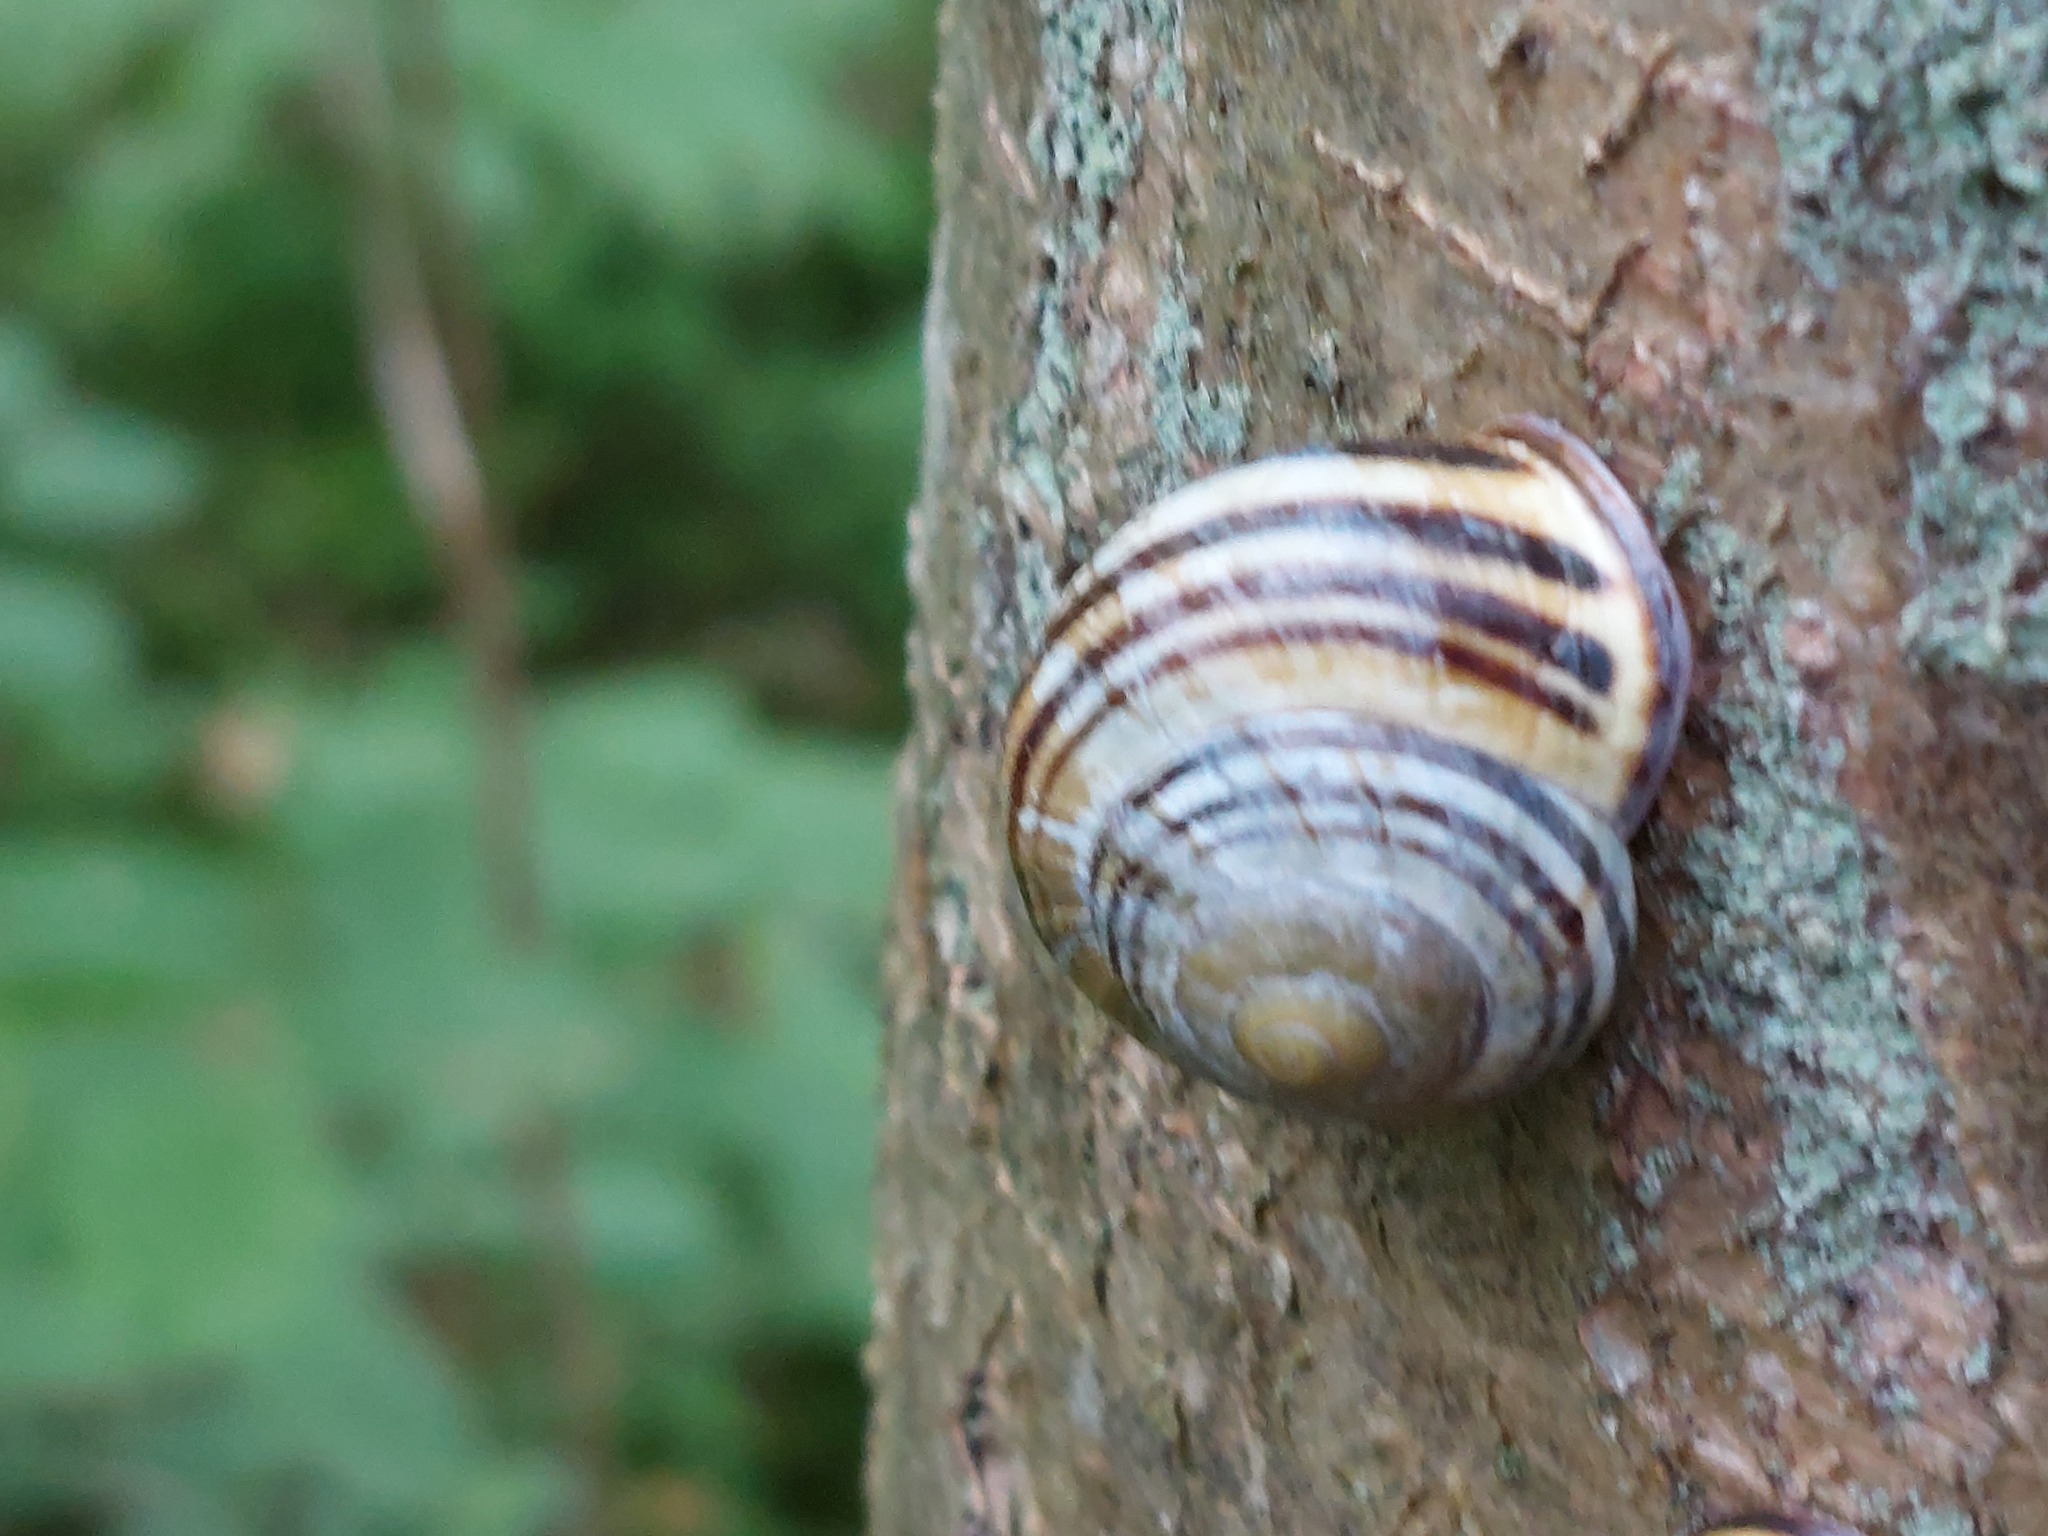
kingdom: Animalia
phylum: Mollusca
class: Gastropoda
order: Stylommatophora
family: Helicidae
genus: Cepaea
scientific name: Cepaea nemoralis
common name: Grovesnail
